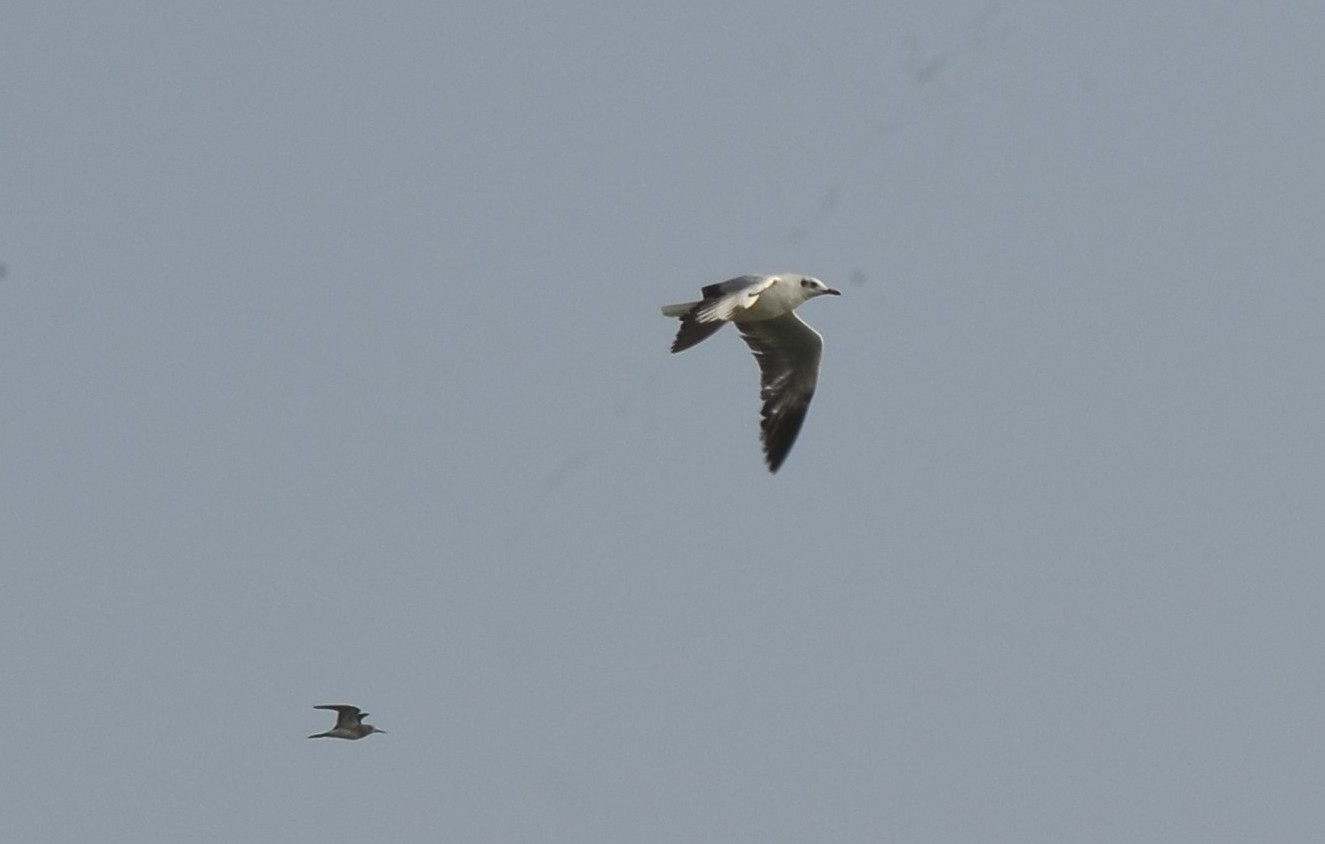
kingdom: Animalia
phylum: Chordata
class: Aves
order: Charadriiformes
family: Laridae
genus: Chroicocephalus
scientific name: Chroicocephalus brunnicephalus
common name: Brown-headed gull
